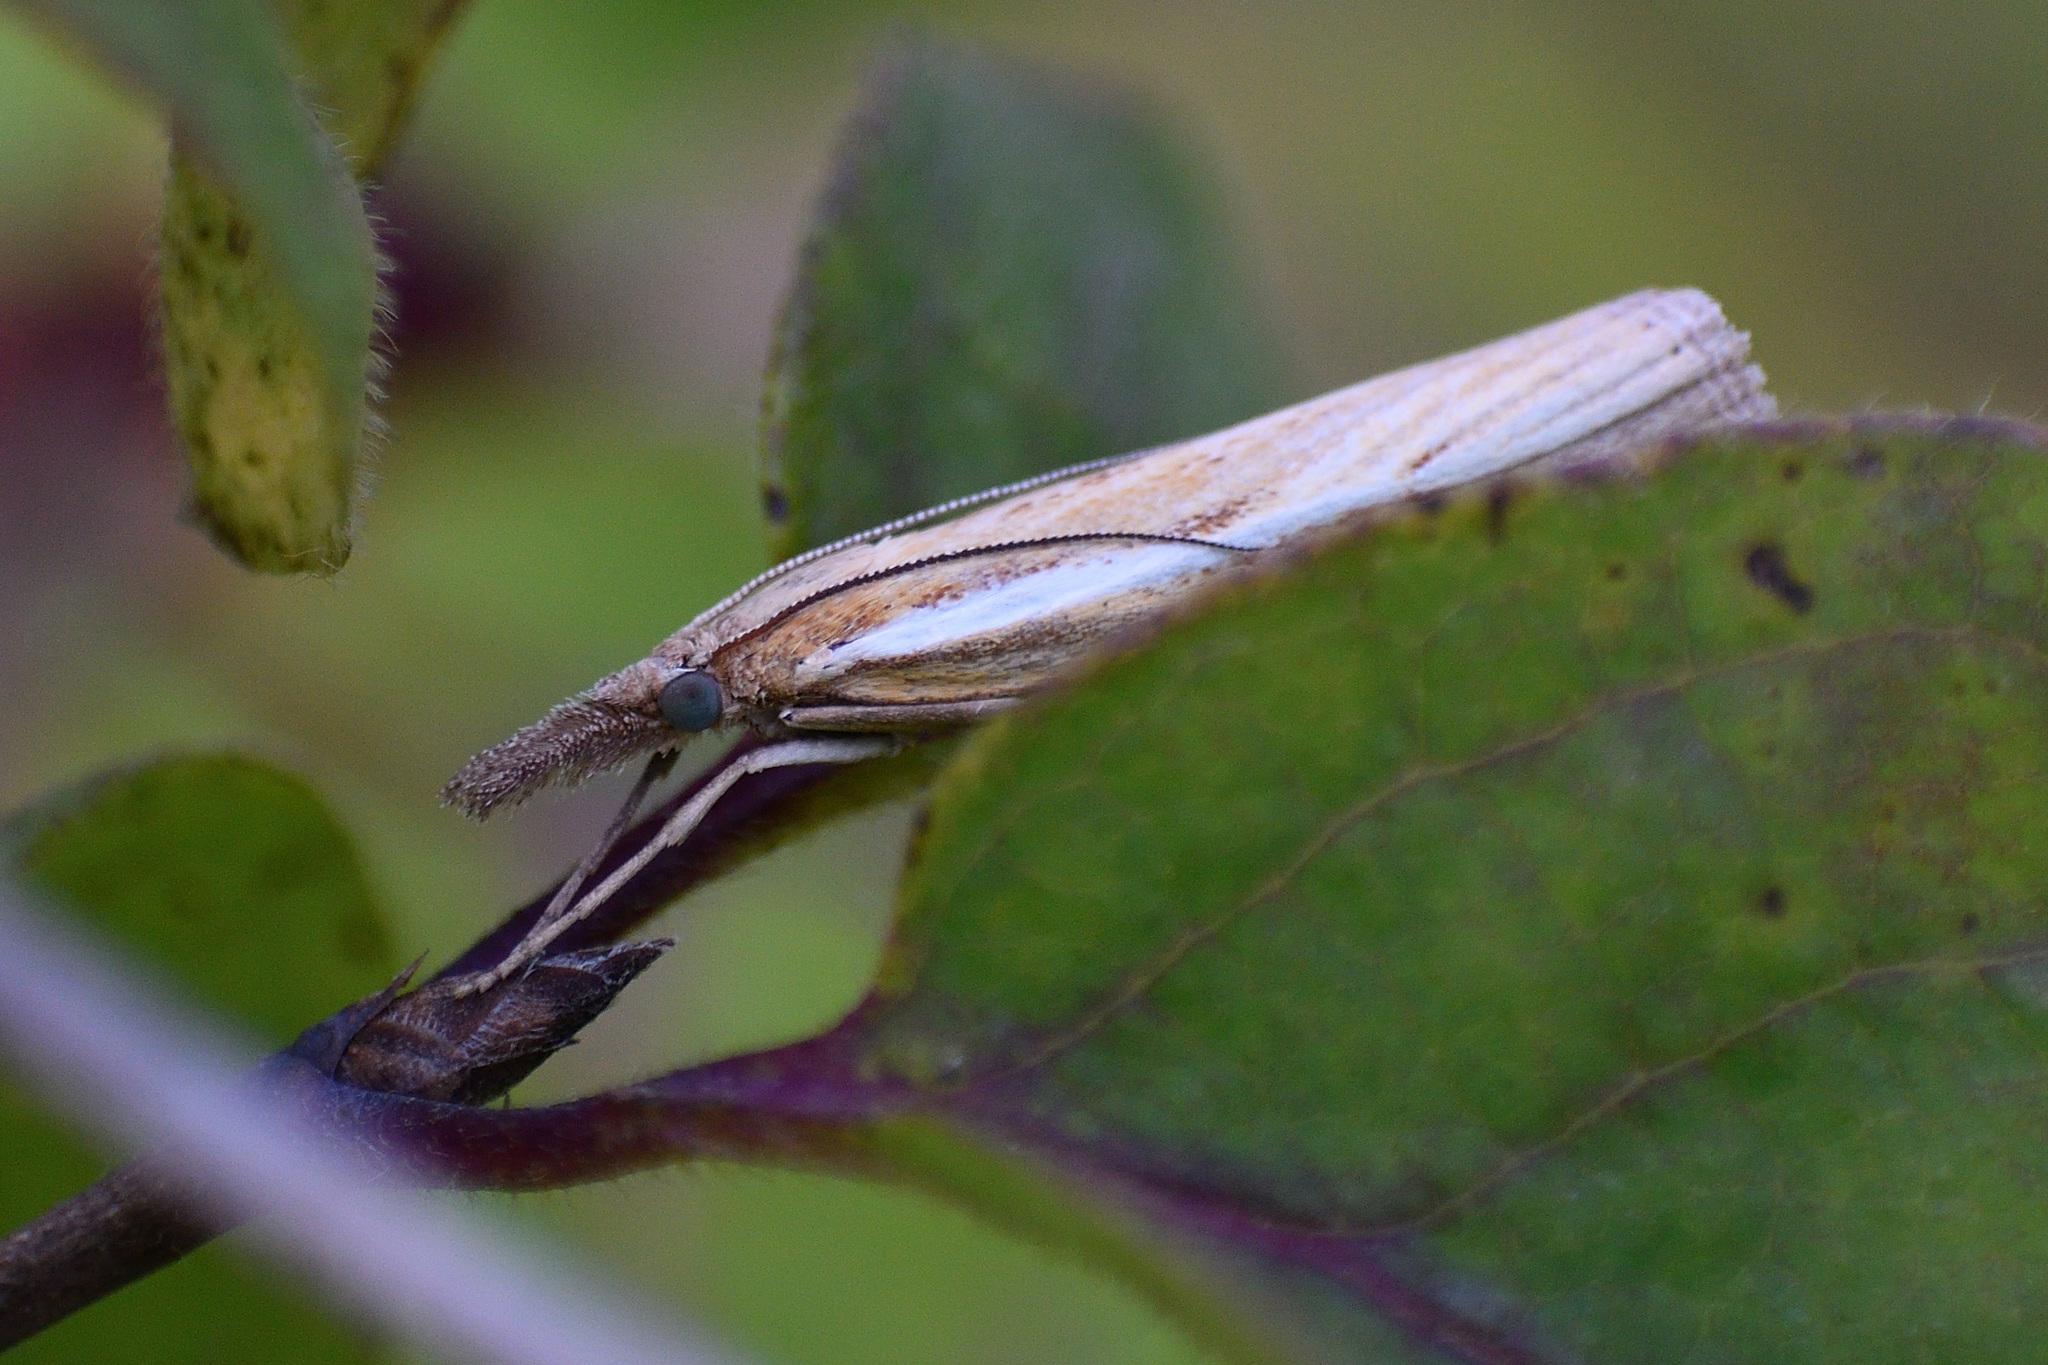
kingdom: Animalia
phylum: Arthropoda
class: Insecta
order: Lepidoptera
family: Crambidae
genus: Agriphila
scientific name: Agriphila tristellus
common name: Common grass-veneer
